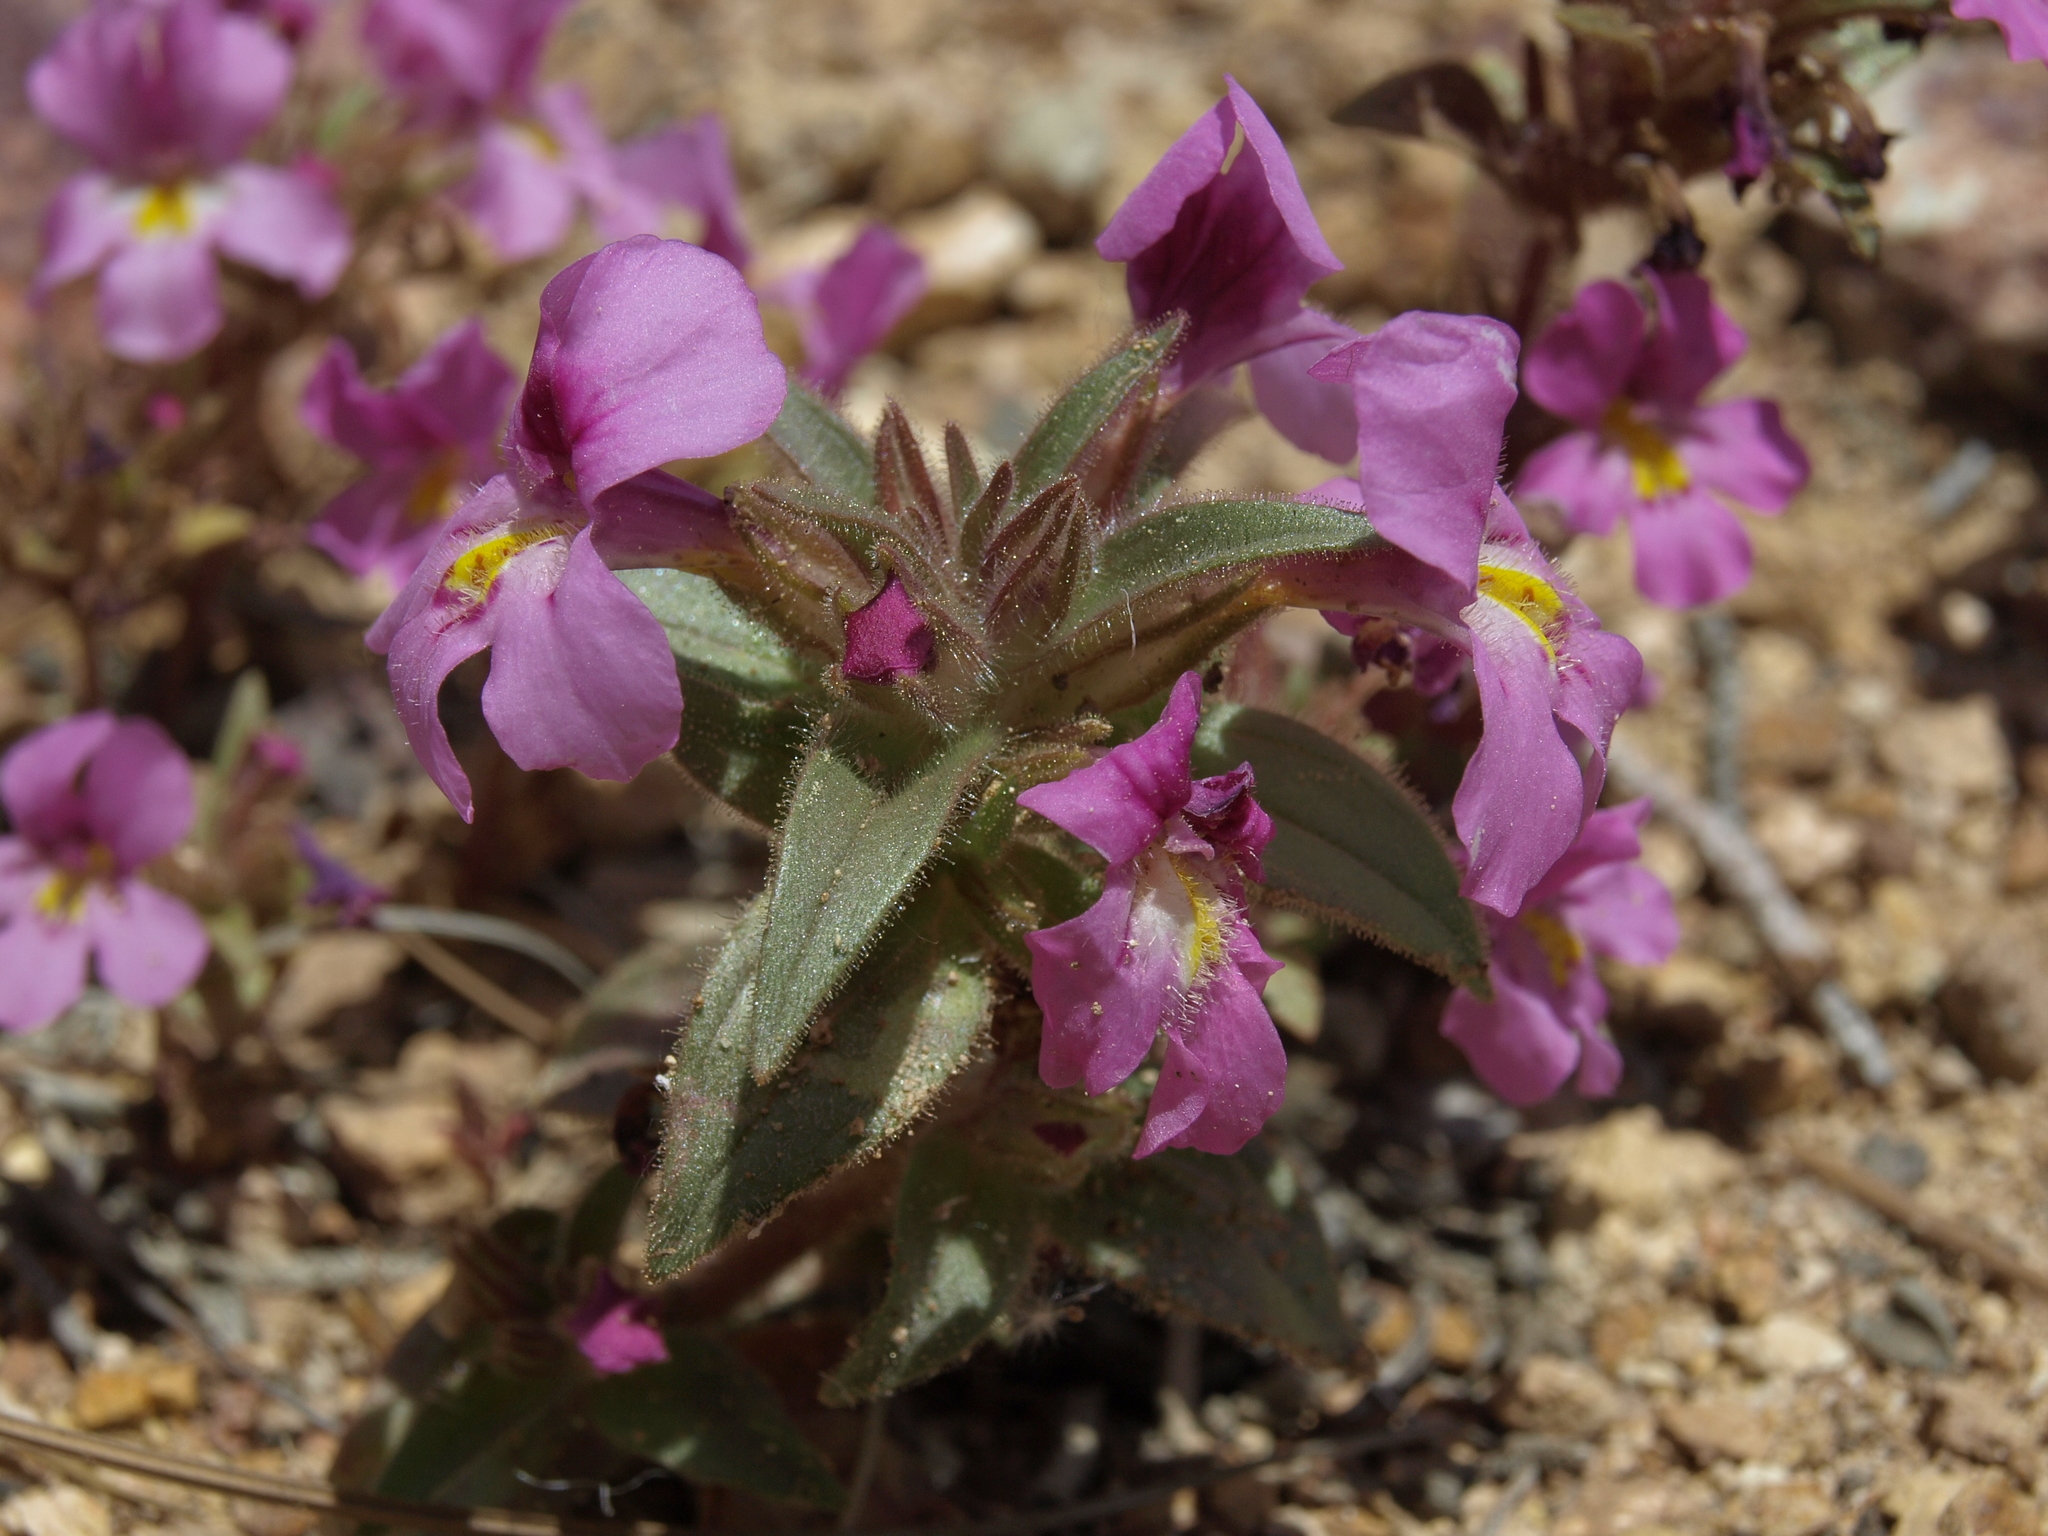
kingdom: Plantae
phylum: Tracheophyta
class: Magnoliopsida
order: Lamiales
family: Phrymaceae
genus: Diplacus
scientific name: Diplacus ovatus
